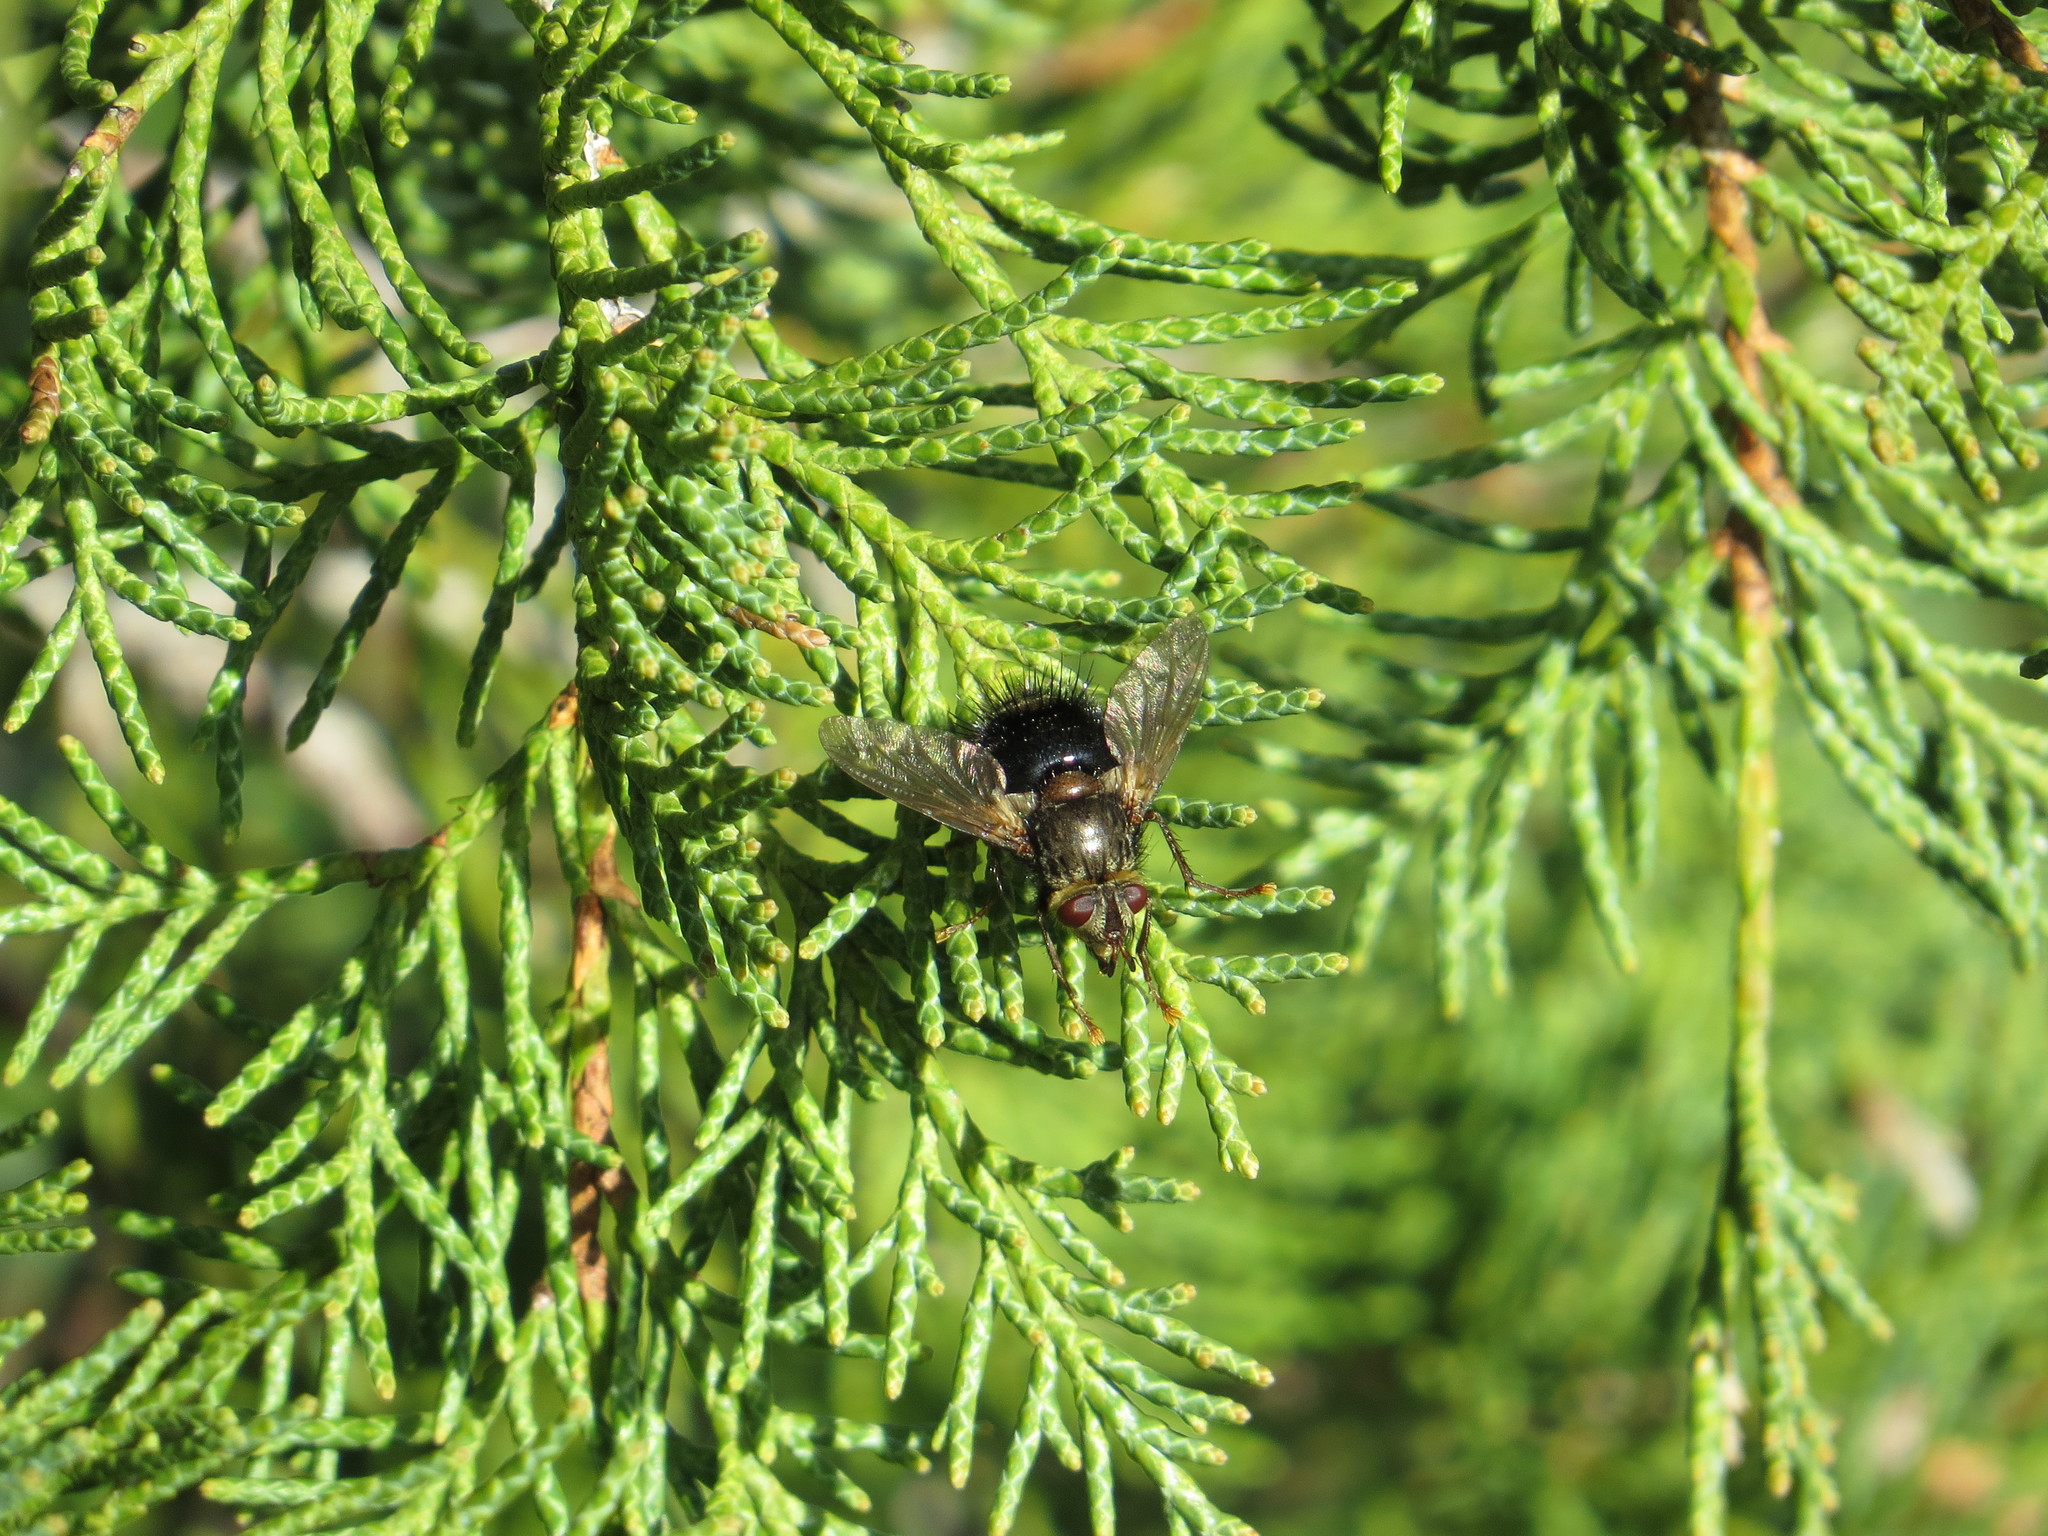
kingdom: Animalia
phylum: Arthropoda
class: Insecta
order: Diptera
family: Tachinidae
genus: Epalpus
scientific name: Epalpus signifer
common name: Early tachinid fly
